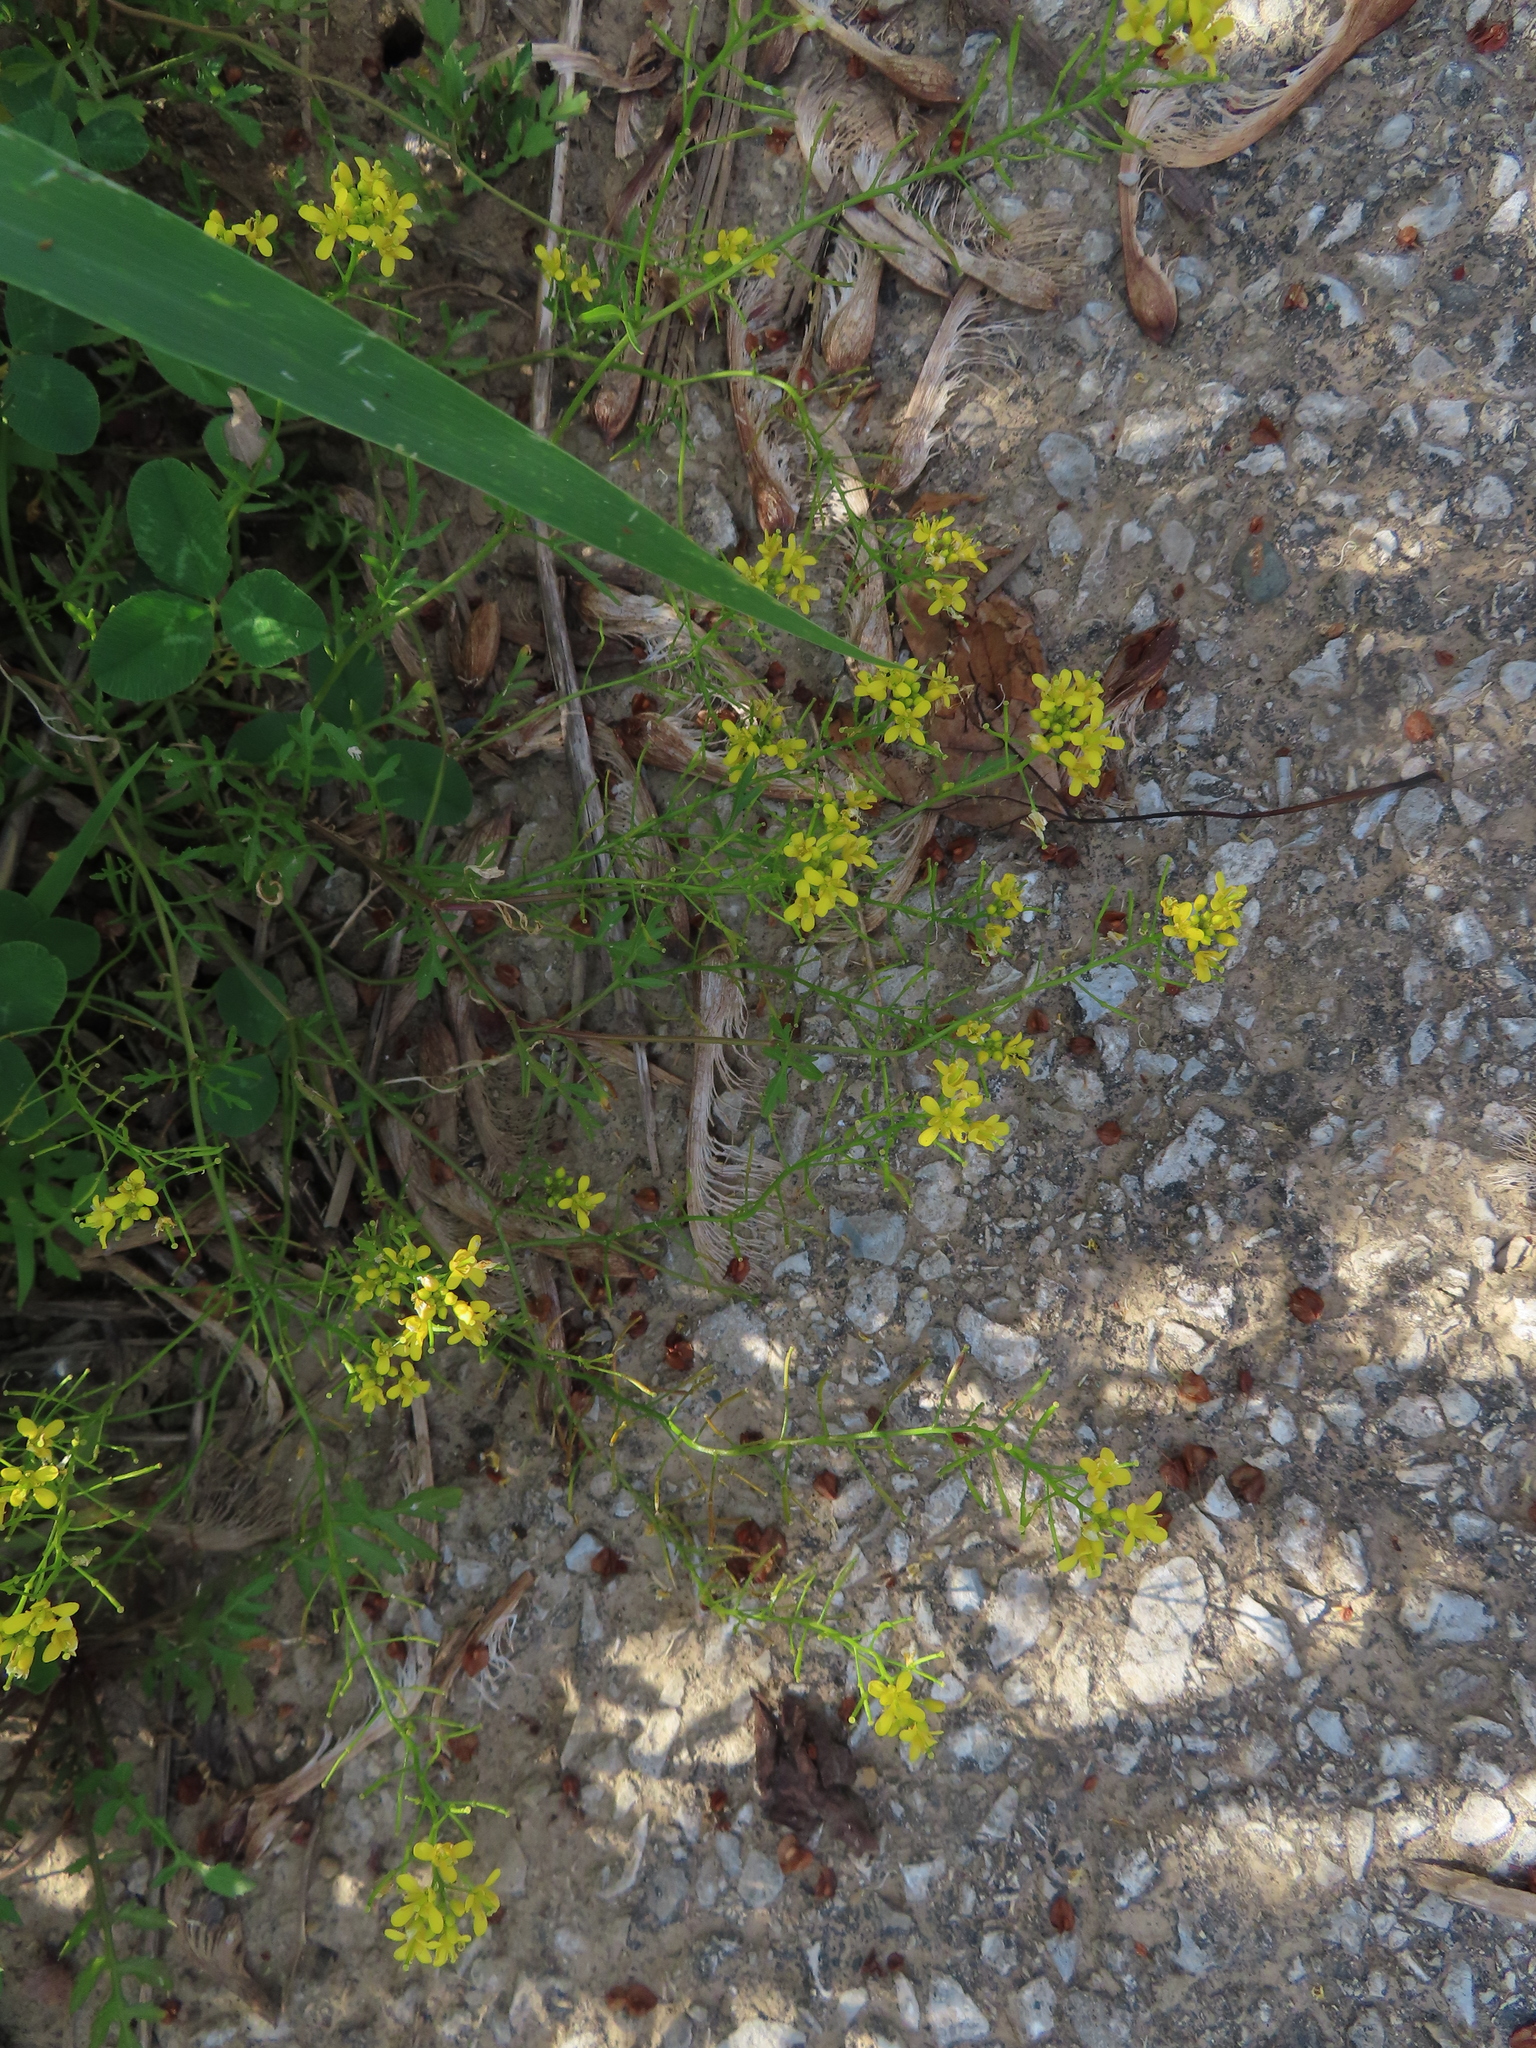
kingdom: Plantae
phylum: Tracheophyta
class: Magnoliopsida
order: Brassicales
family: Brassicaceae
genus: Rorippa
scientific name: Rorippa sylvestris
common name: Creeping yellowcress
